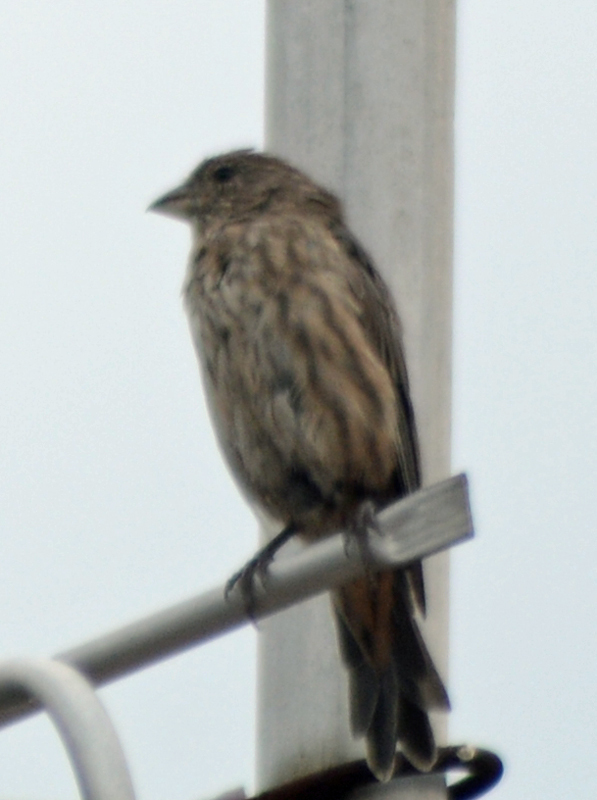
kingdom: Animalia
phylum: Chordata
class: Aves
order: Passeriformes
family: Fringillidae
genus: Haemorhous
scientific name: Haemorhous mexicanus
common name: House finch
